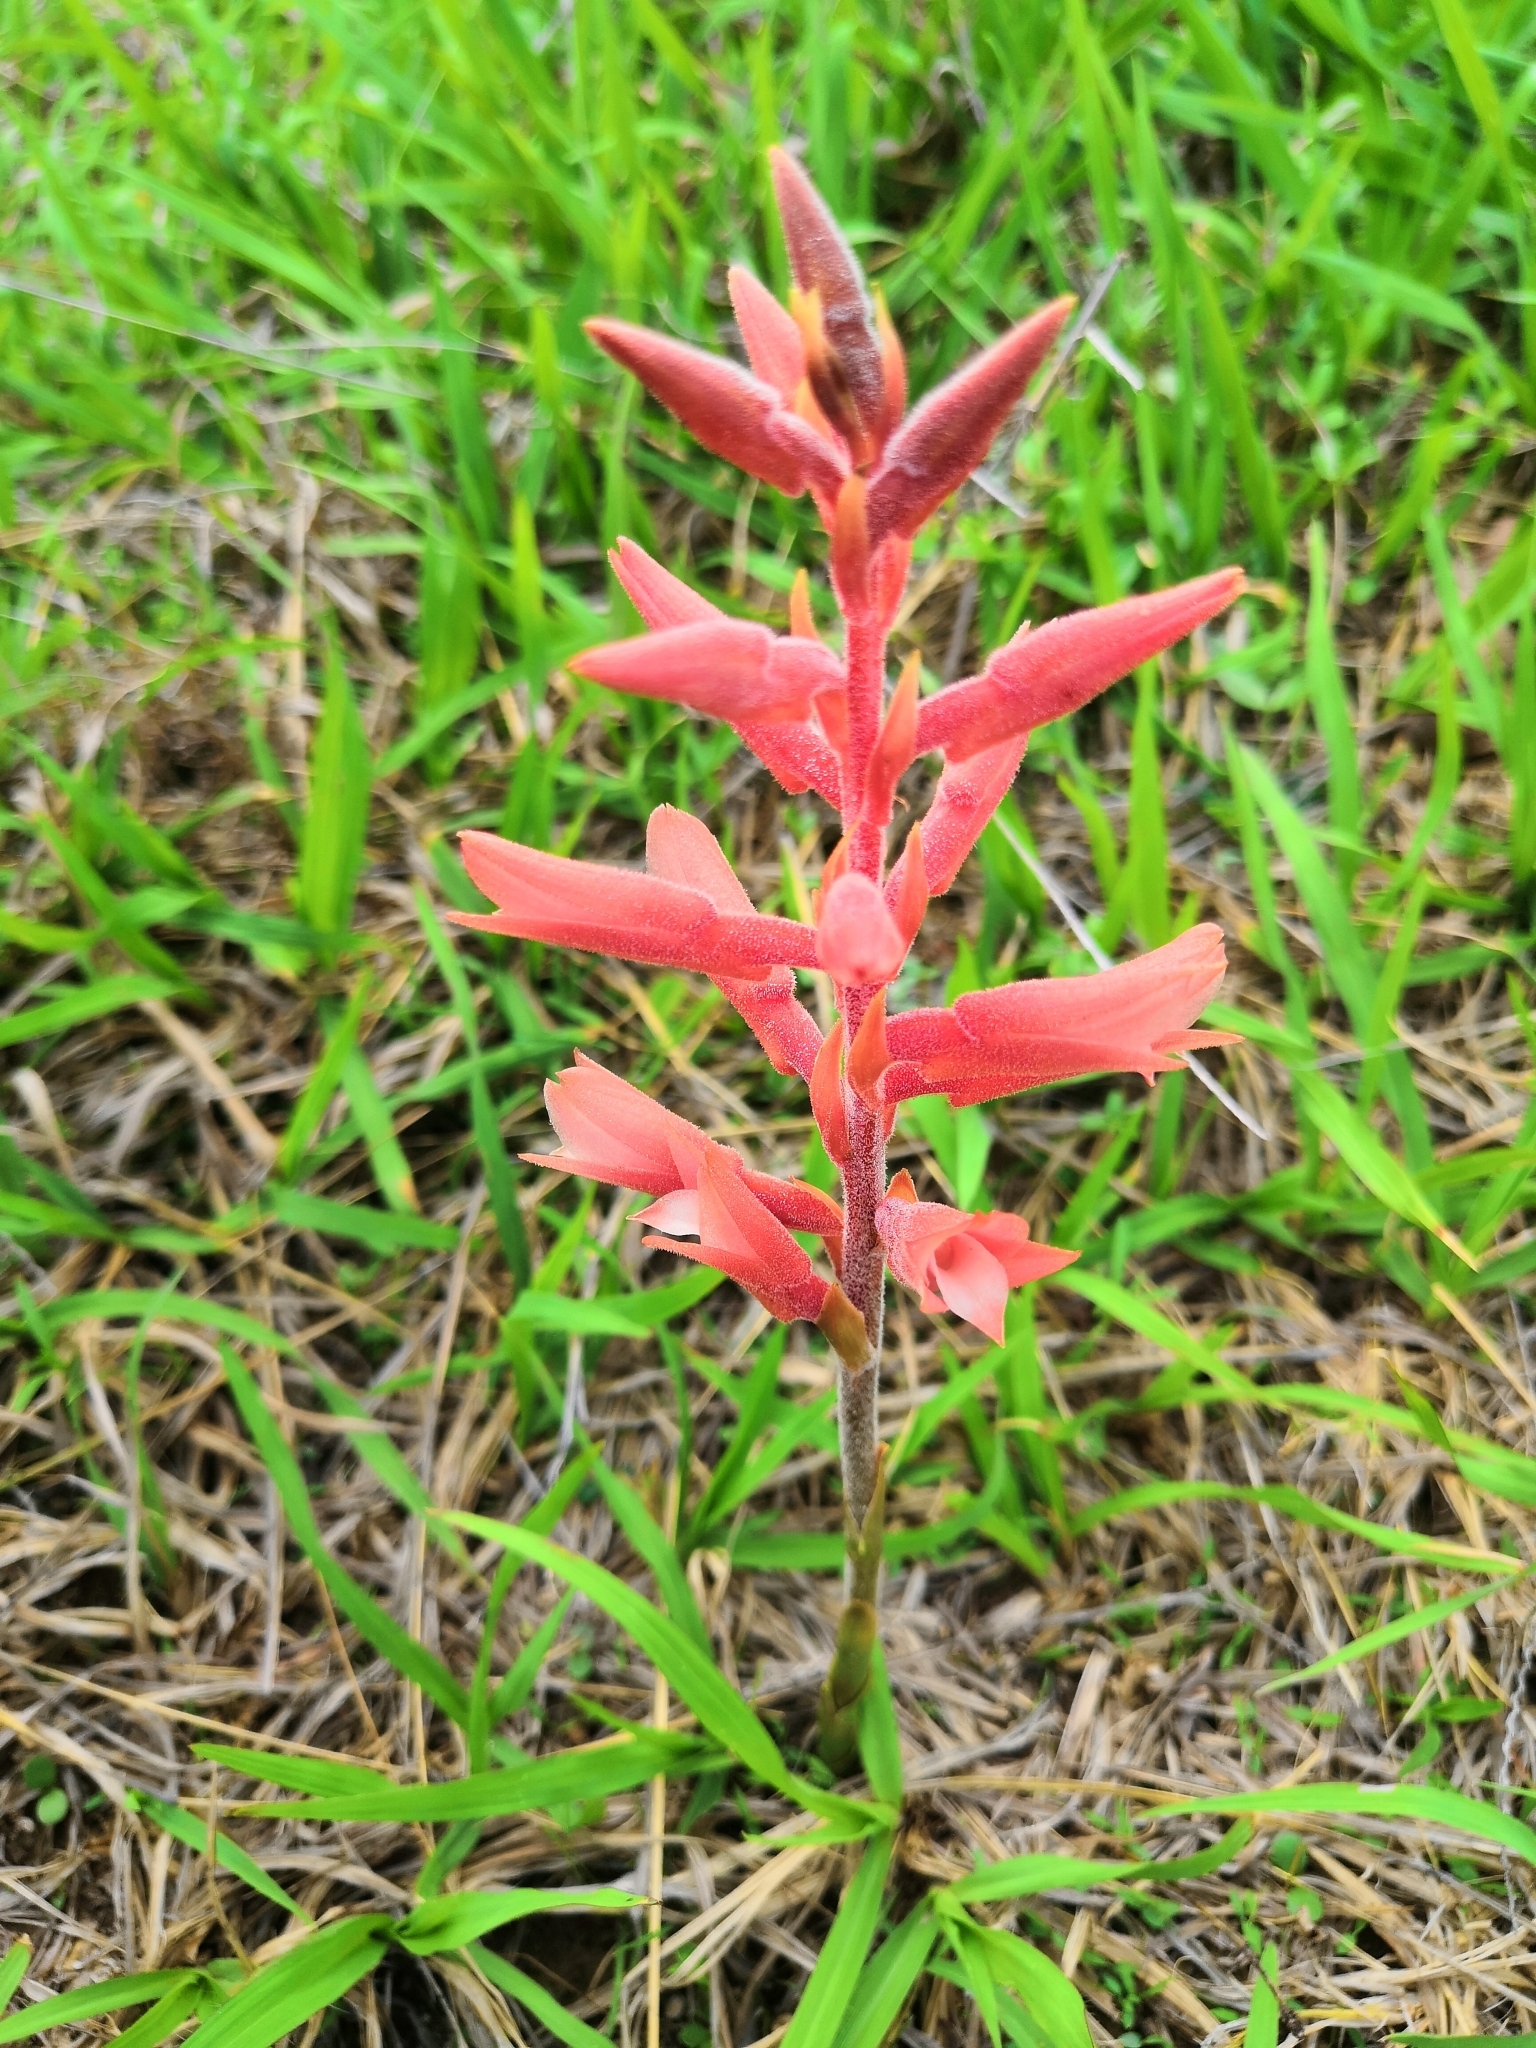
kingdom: Plantae
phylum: Tracheophyta
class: Liliopsida
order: Asparagales
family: Orchidaceae
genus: Sacoila
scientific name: Sacoila lanceolata
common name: Leafless beaked ladiestresses
